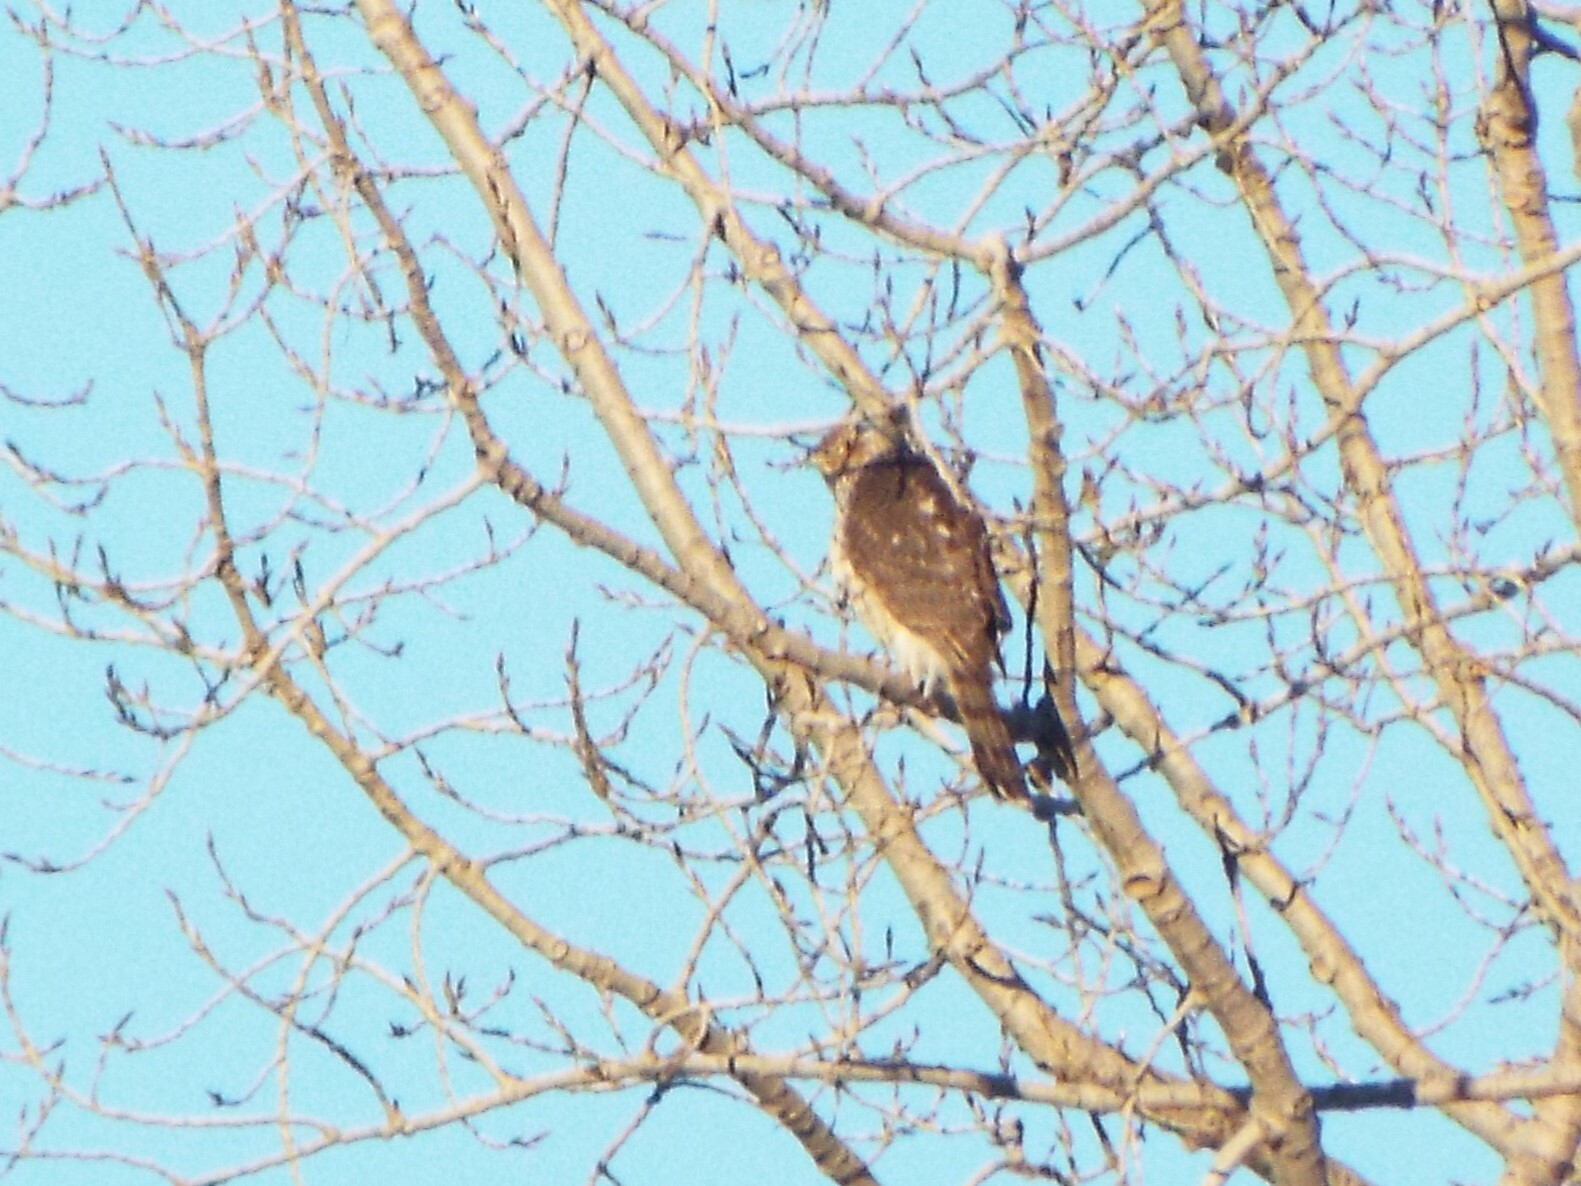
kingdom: Animalia
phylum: Chordata
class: Aves
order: Accipitriformes
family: Accipitridae
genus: Accipiter
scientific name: Accipiter cooperii
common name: Cooper's hawk
